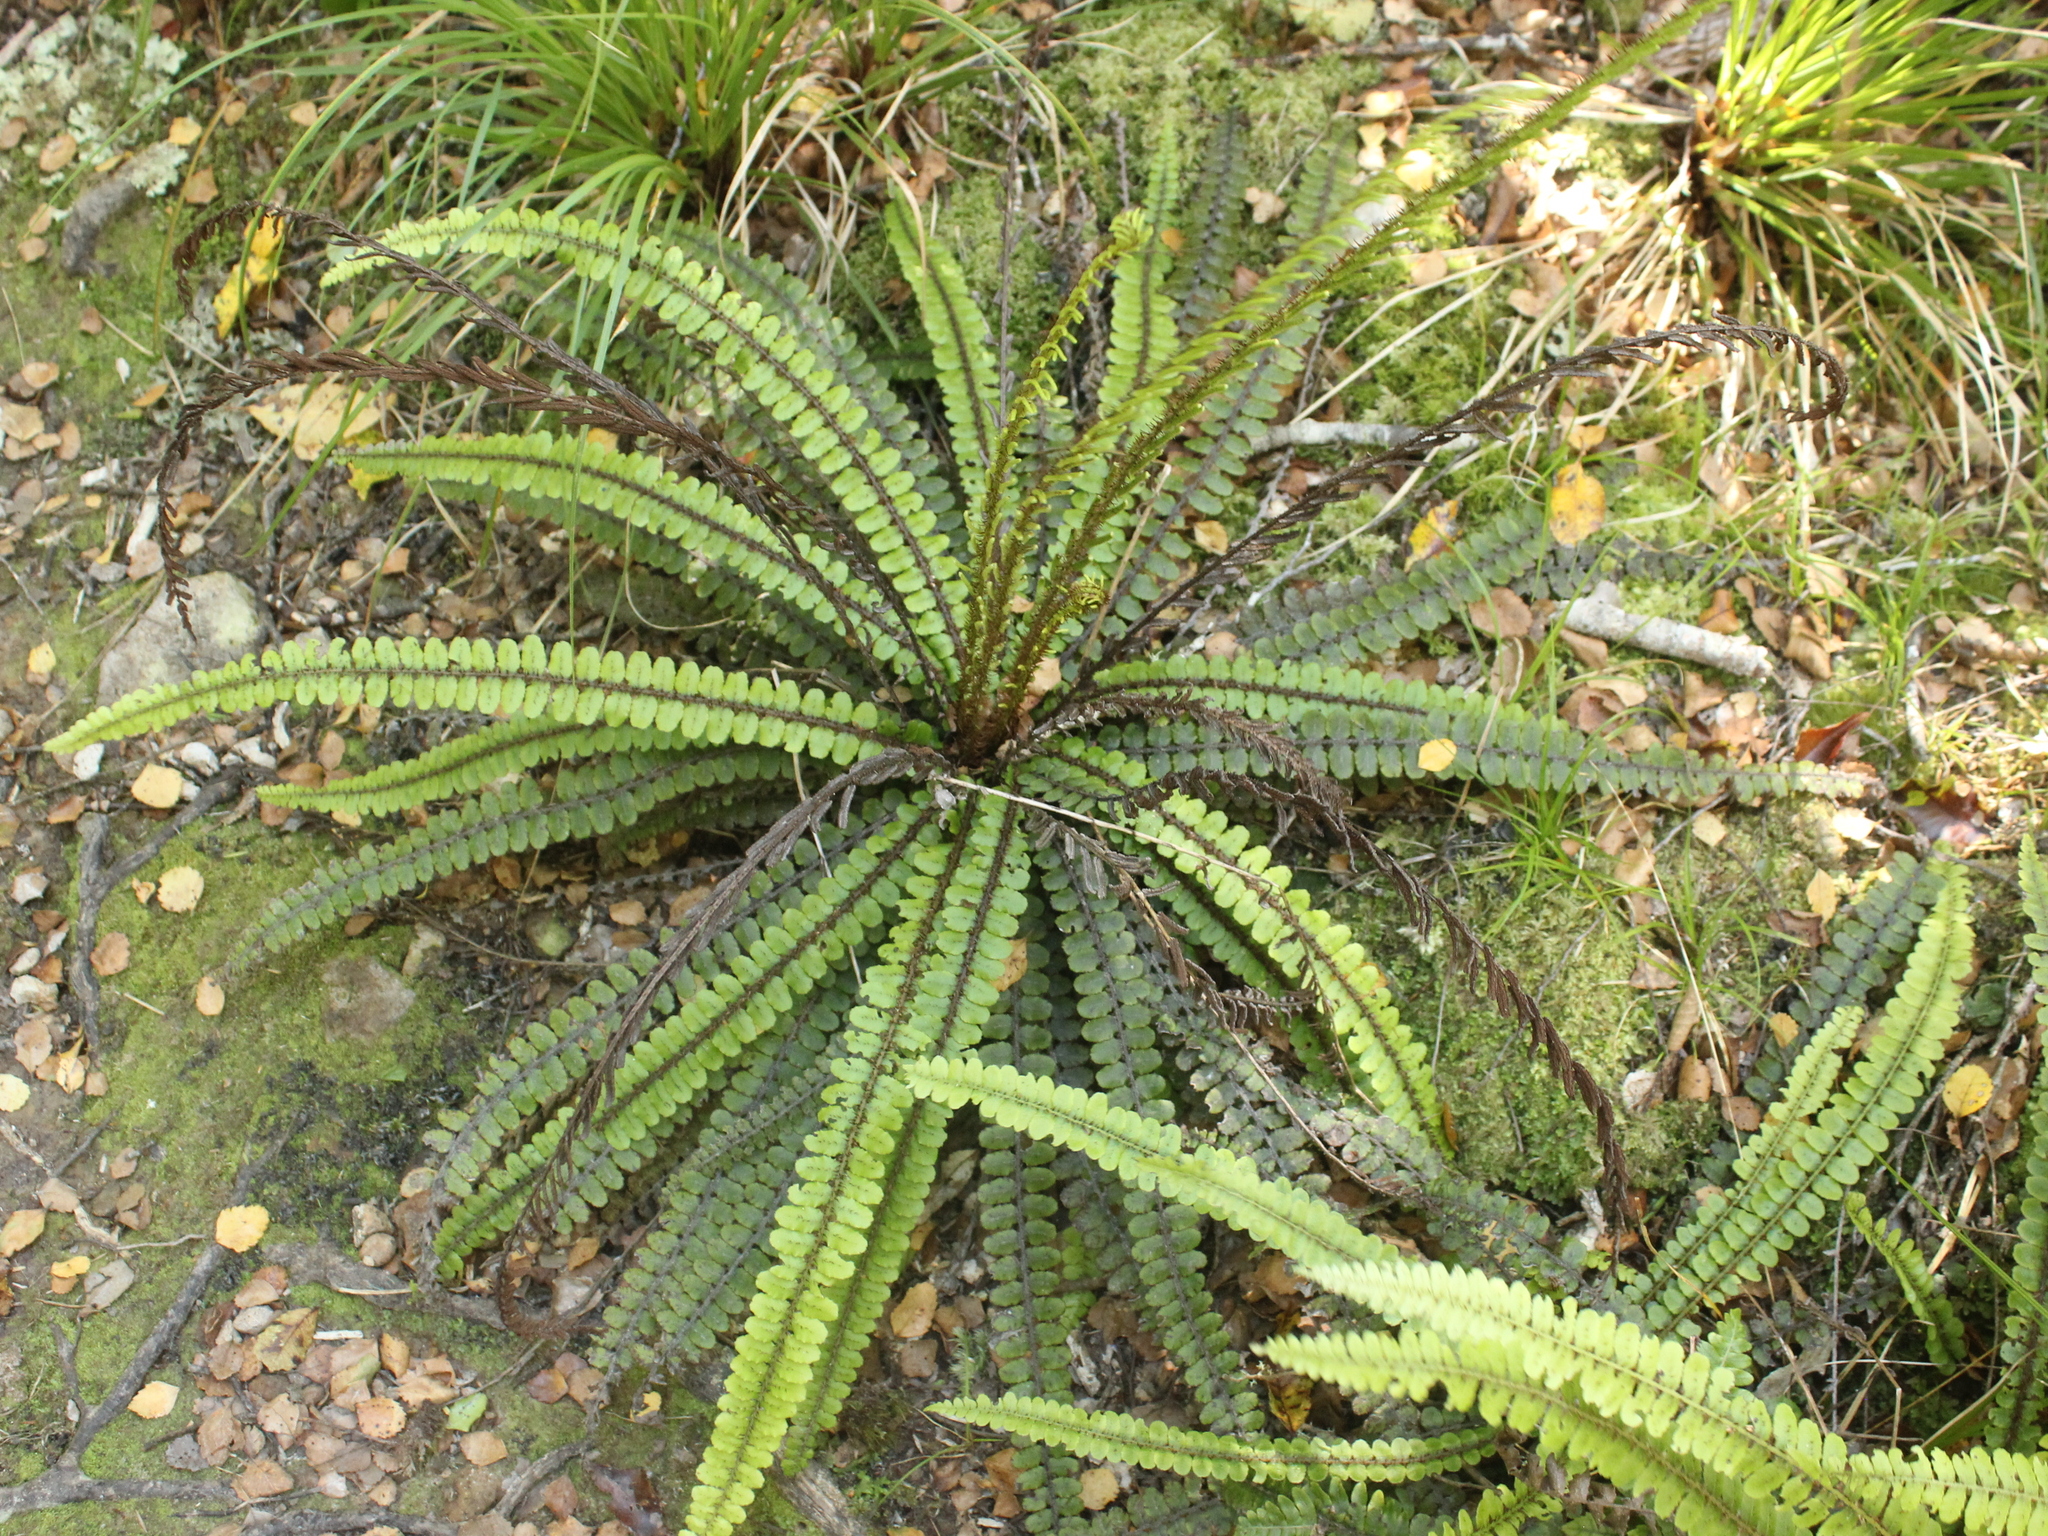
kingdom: Plantae
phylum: Tracheophyta
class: Polypodiopsida
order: Polypodiales
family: Blechnaceae
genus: Cranfillia
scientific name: Cranfillia fluviatilis
